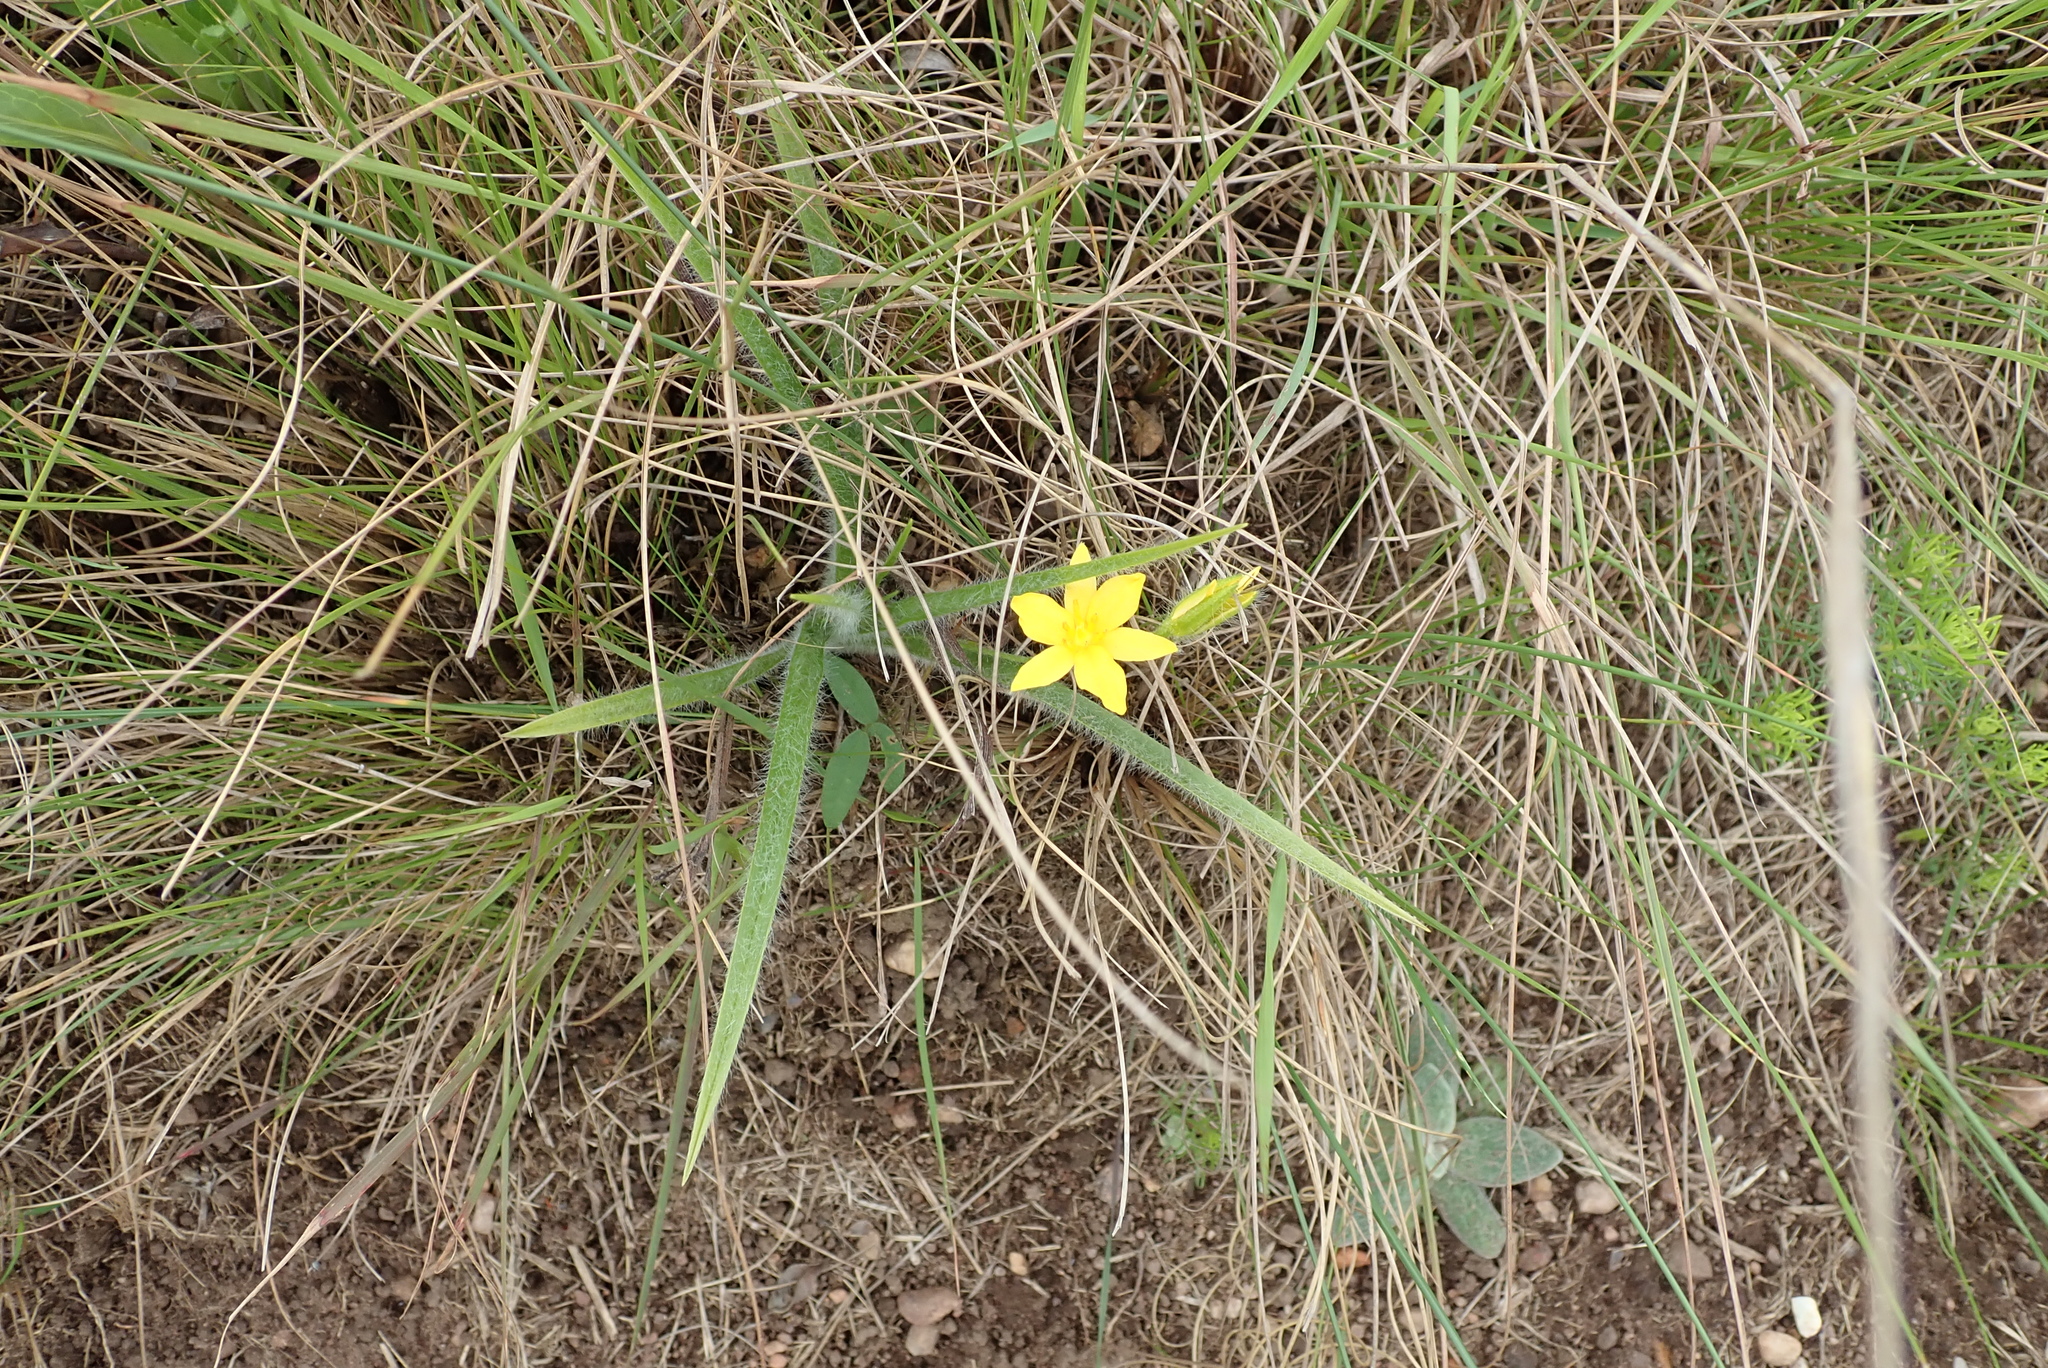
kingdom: Plantae
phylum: Tracheophyta
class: Liliopsida
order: Asparagales
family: Hypoxidaceae
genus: Hypoxis
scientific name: Hypoxis argentea
